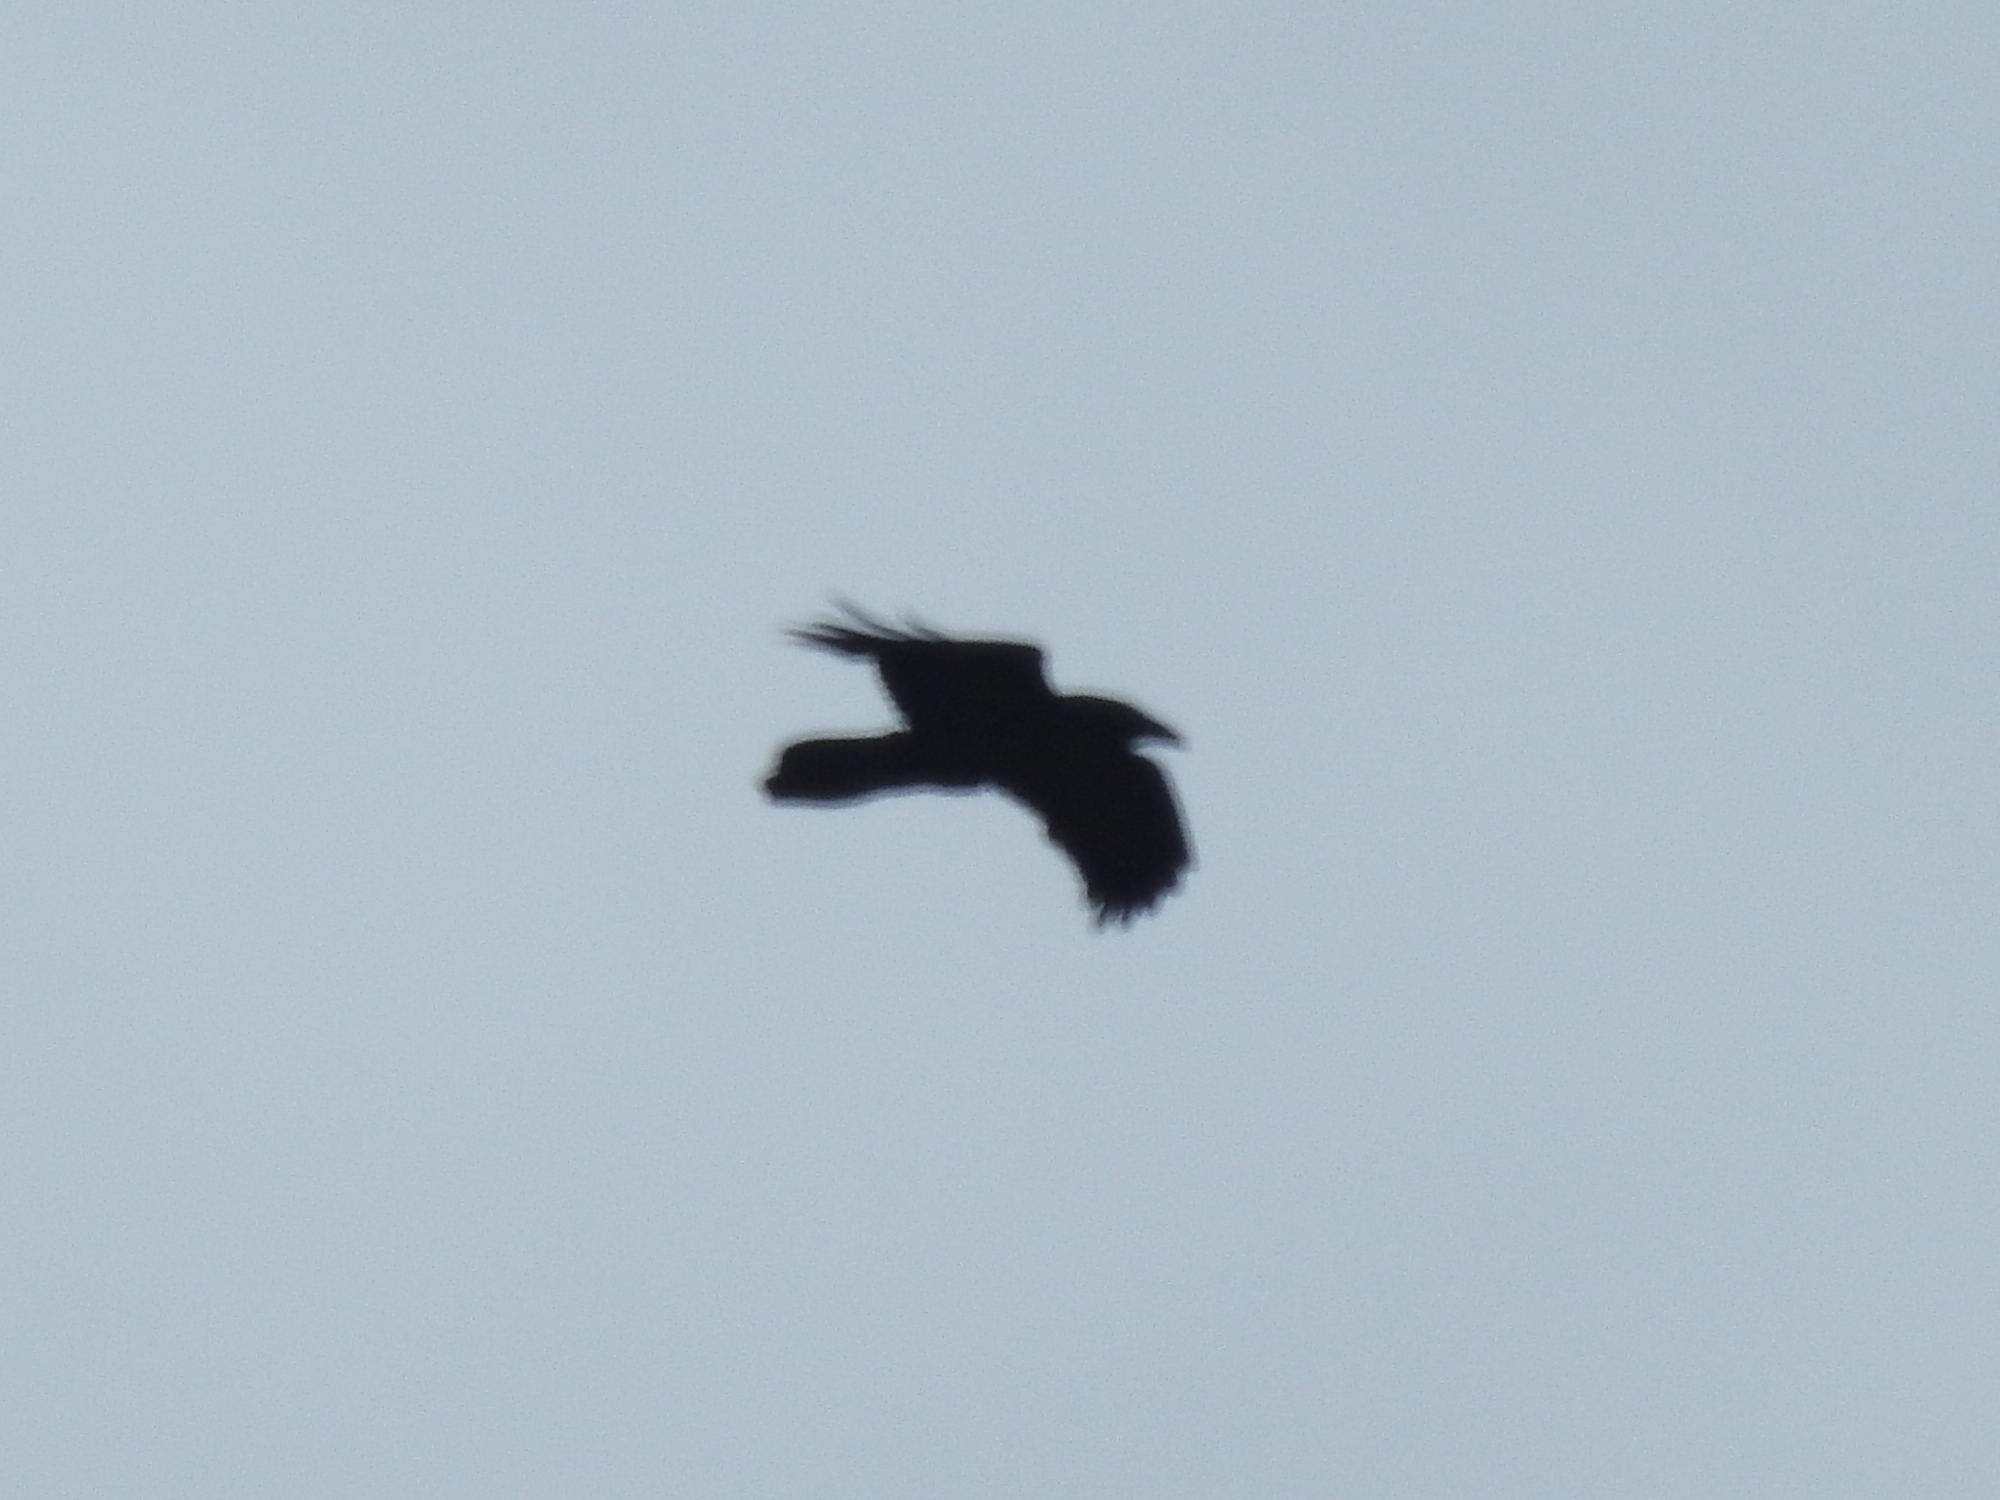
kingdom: Animalia
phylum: Chordata
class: Aves
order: Passeriformes
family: Corvidae
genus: Corvus
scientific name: Corvus corax
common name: Common raven
